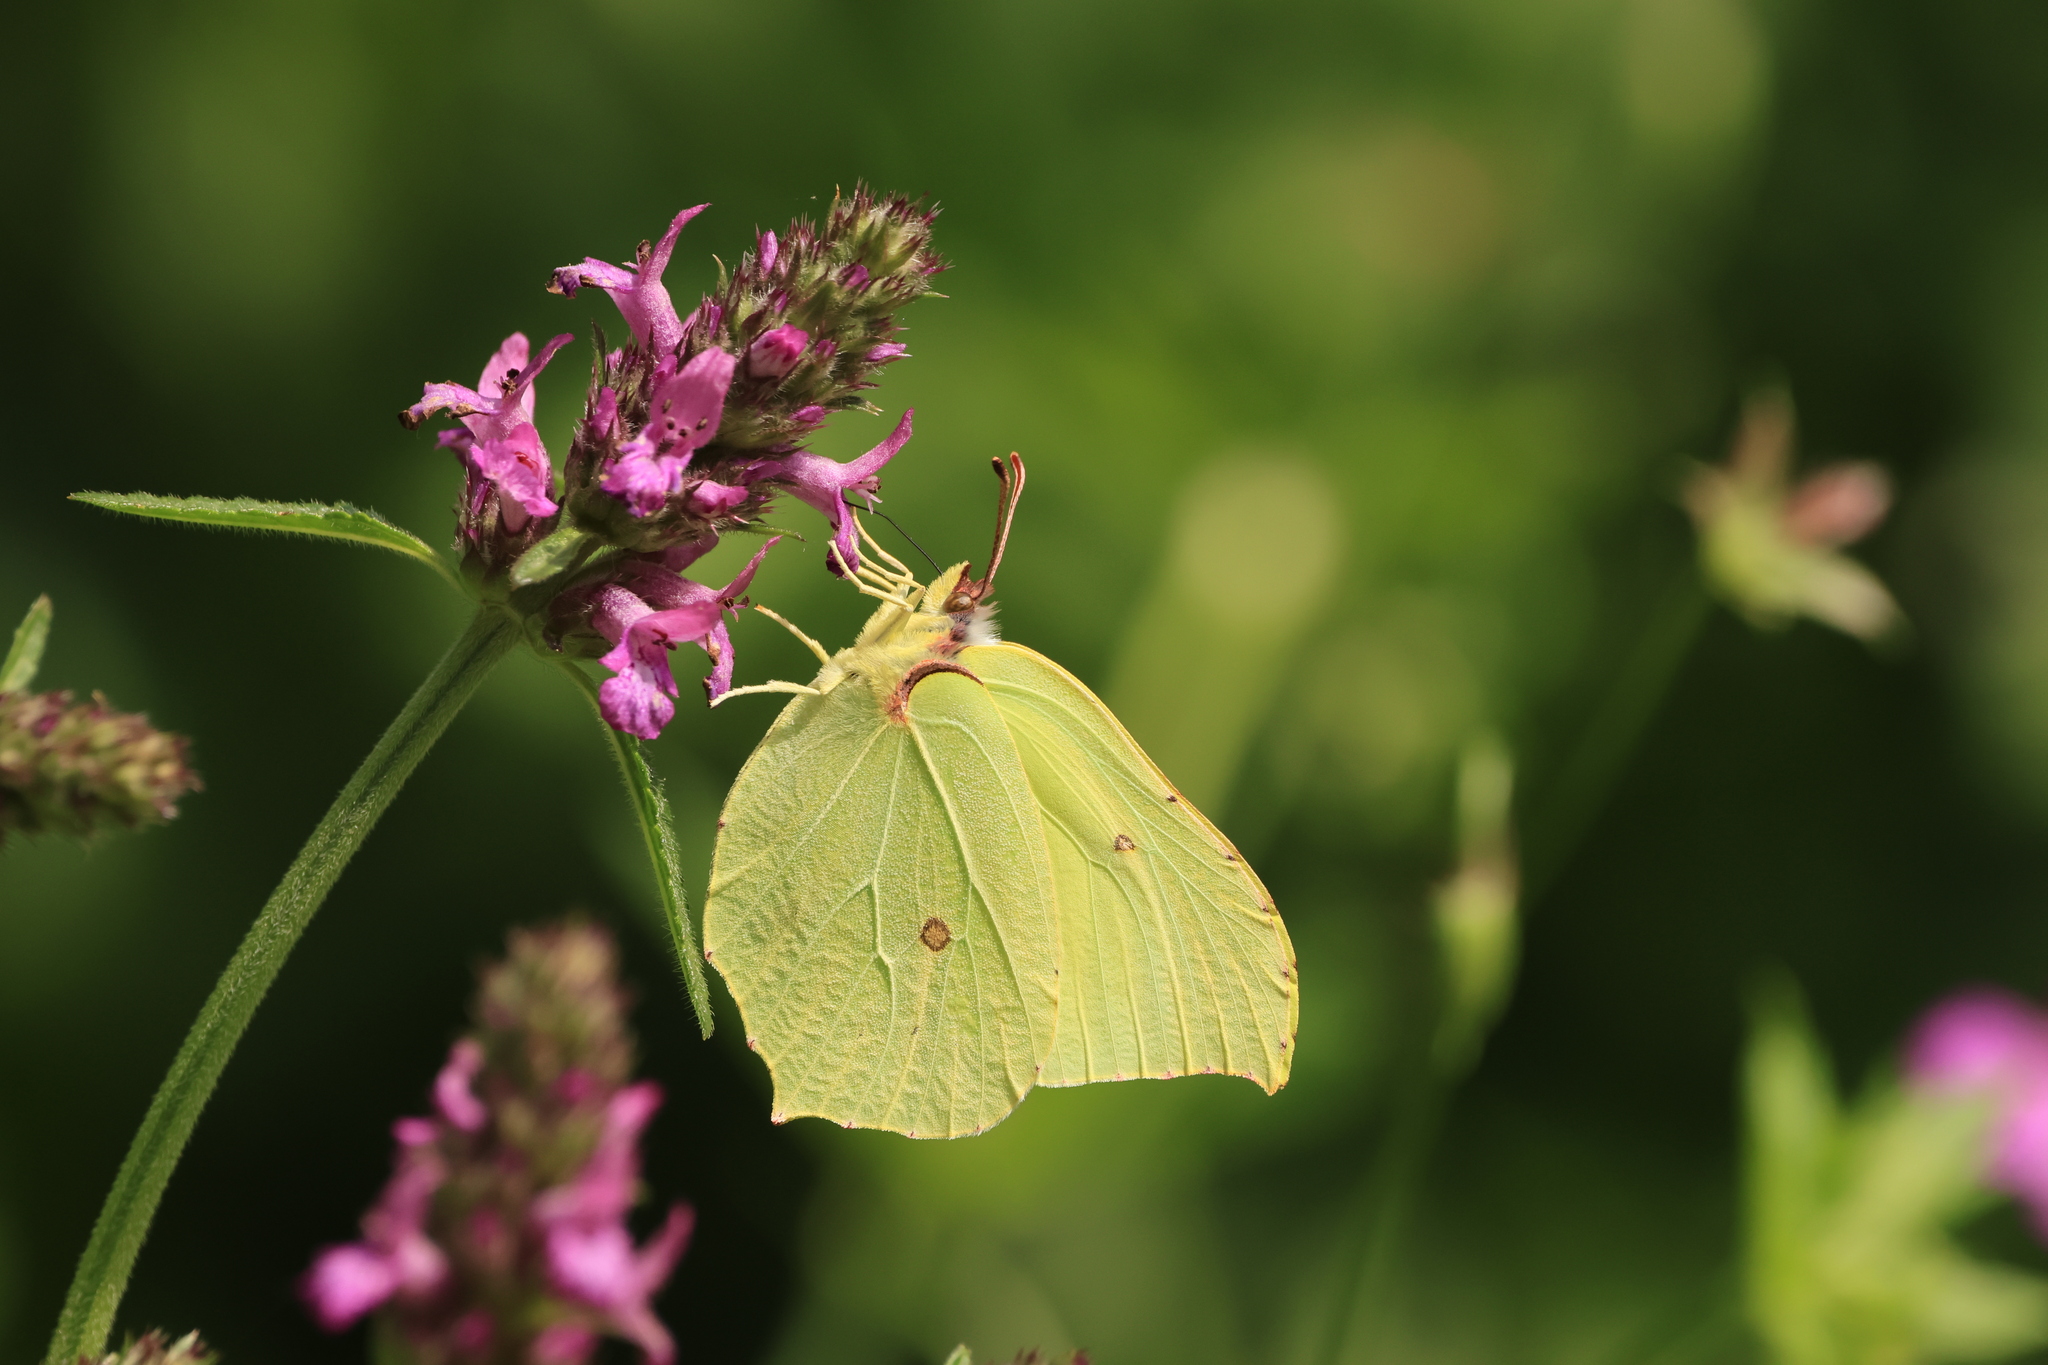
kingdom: Animalia
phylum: Arthropoda
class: Insecta
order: Lepidoptera
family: Pieridae
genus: Gonepteryx
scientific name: Gonepteryx rhamni
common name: Brimstone
